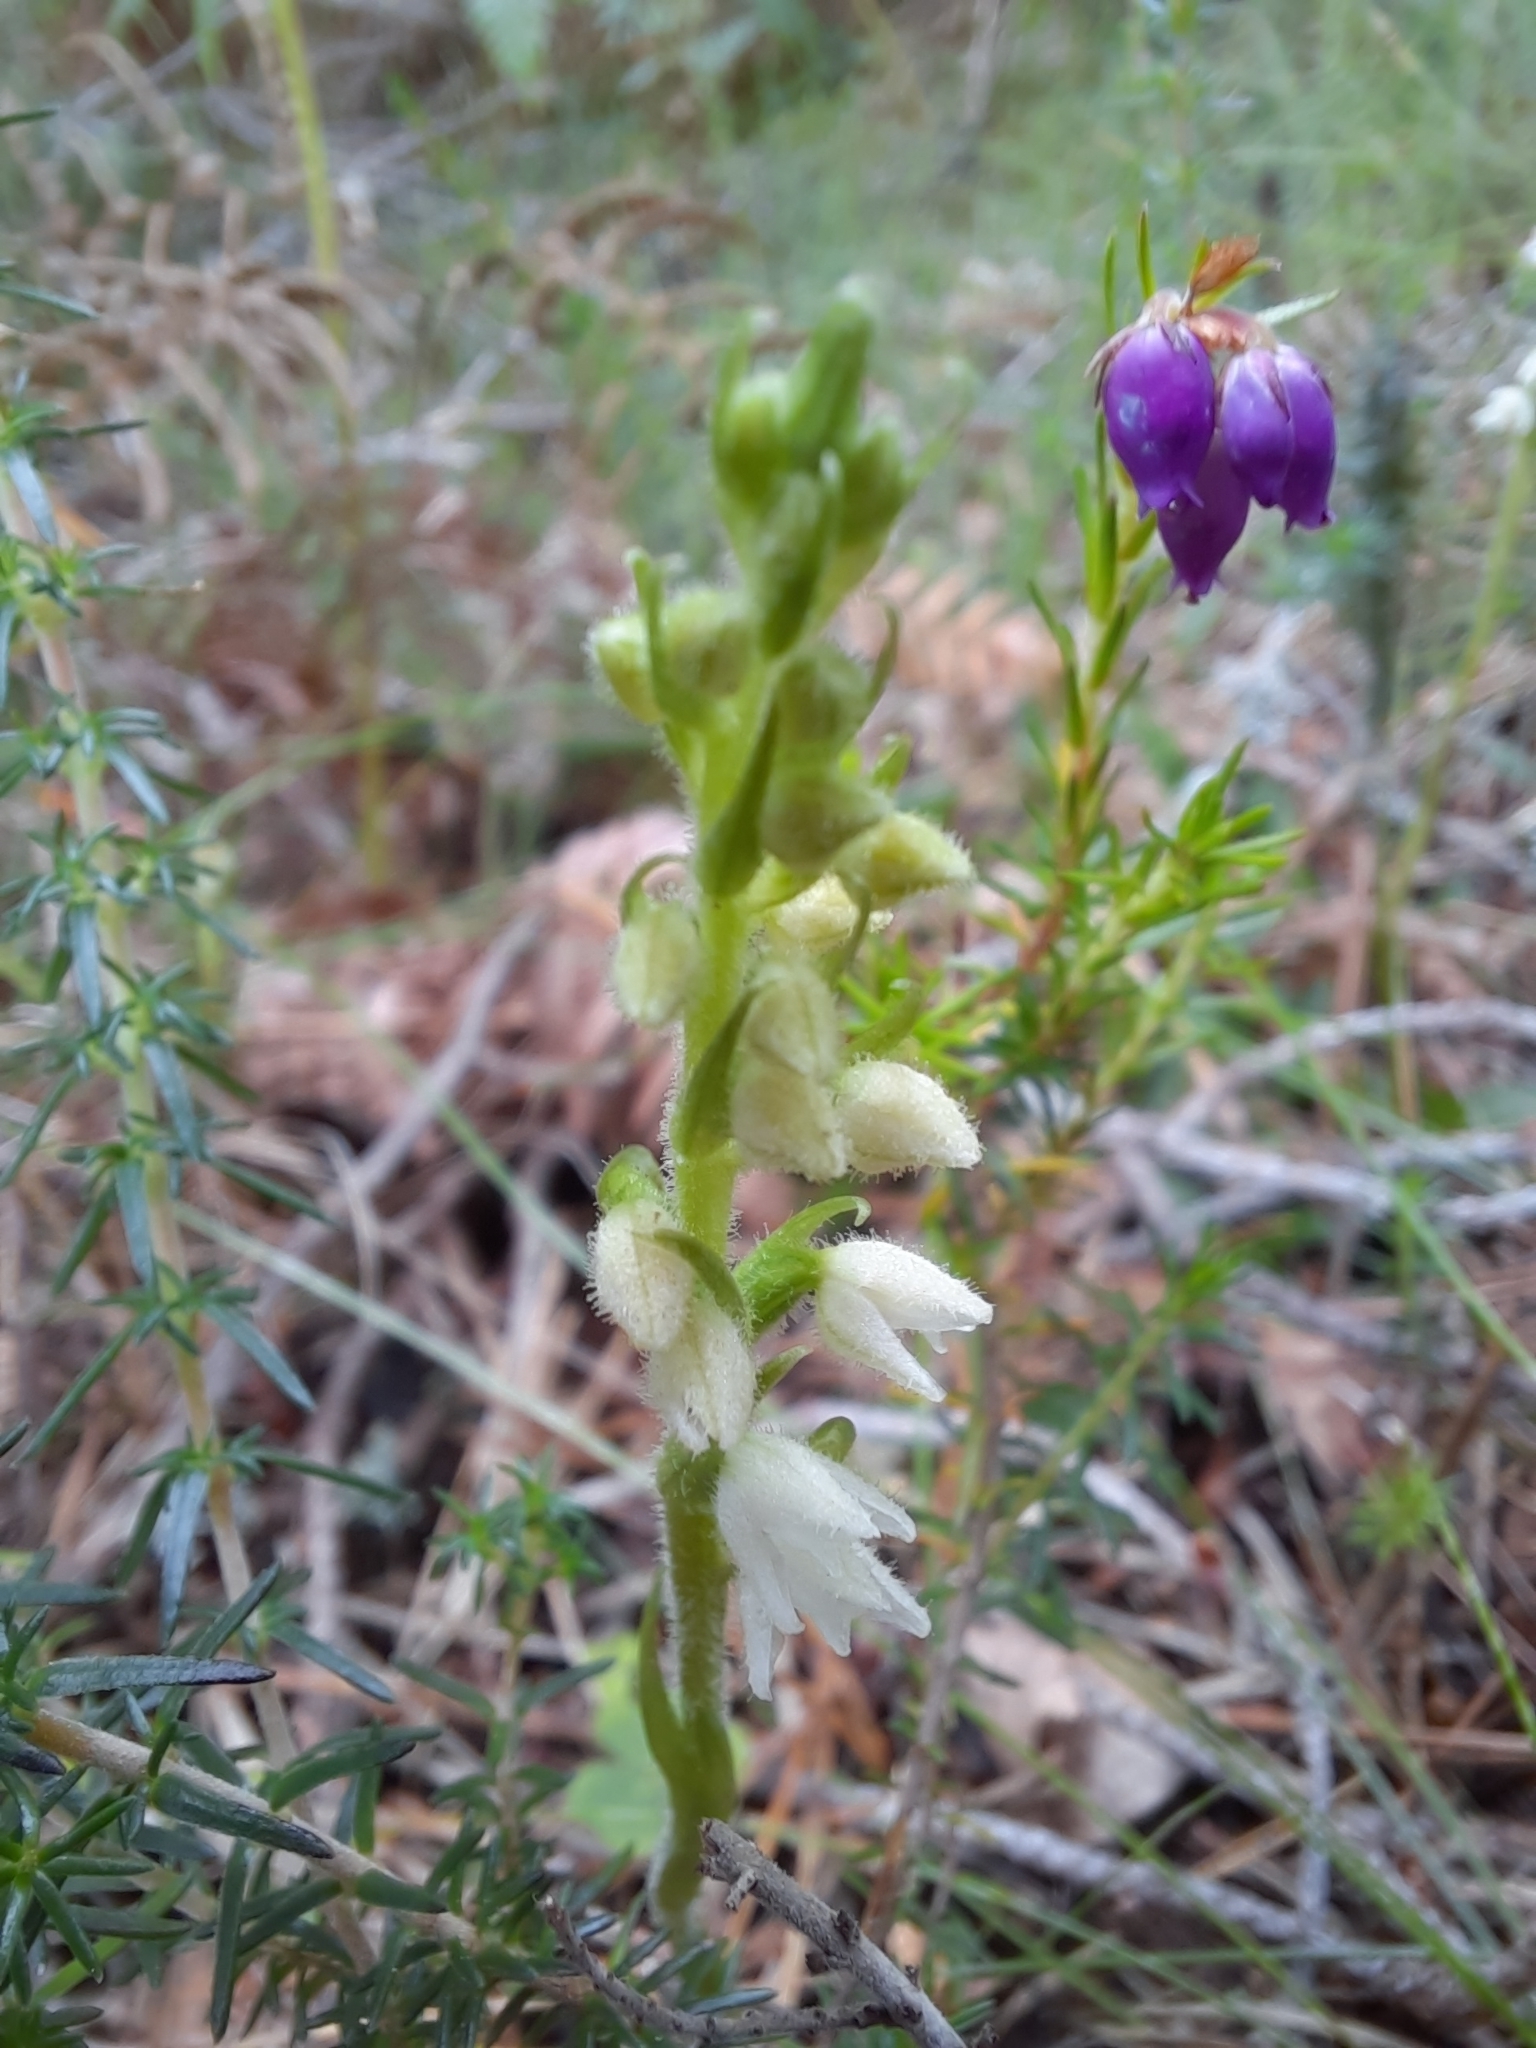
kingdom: Plantae
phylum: Tracheophyta
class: Liliopsida
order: Asparagales
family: Orchidaceae
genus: Goodyera
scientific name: Goodyera repens
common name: Creeping lady's-tresses
